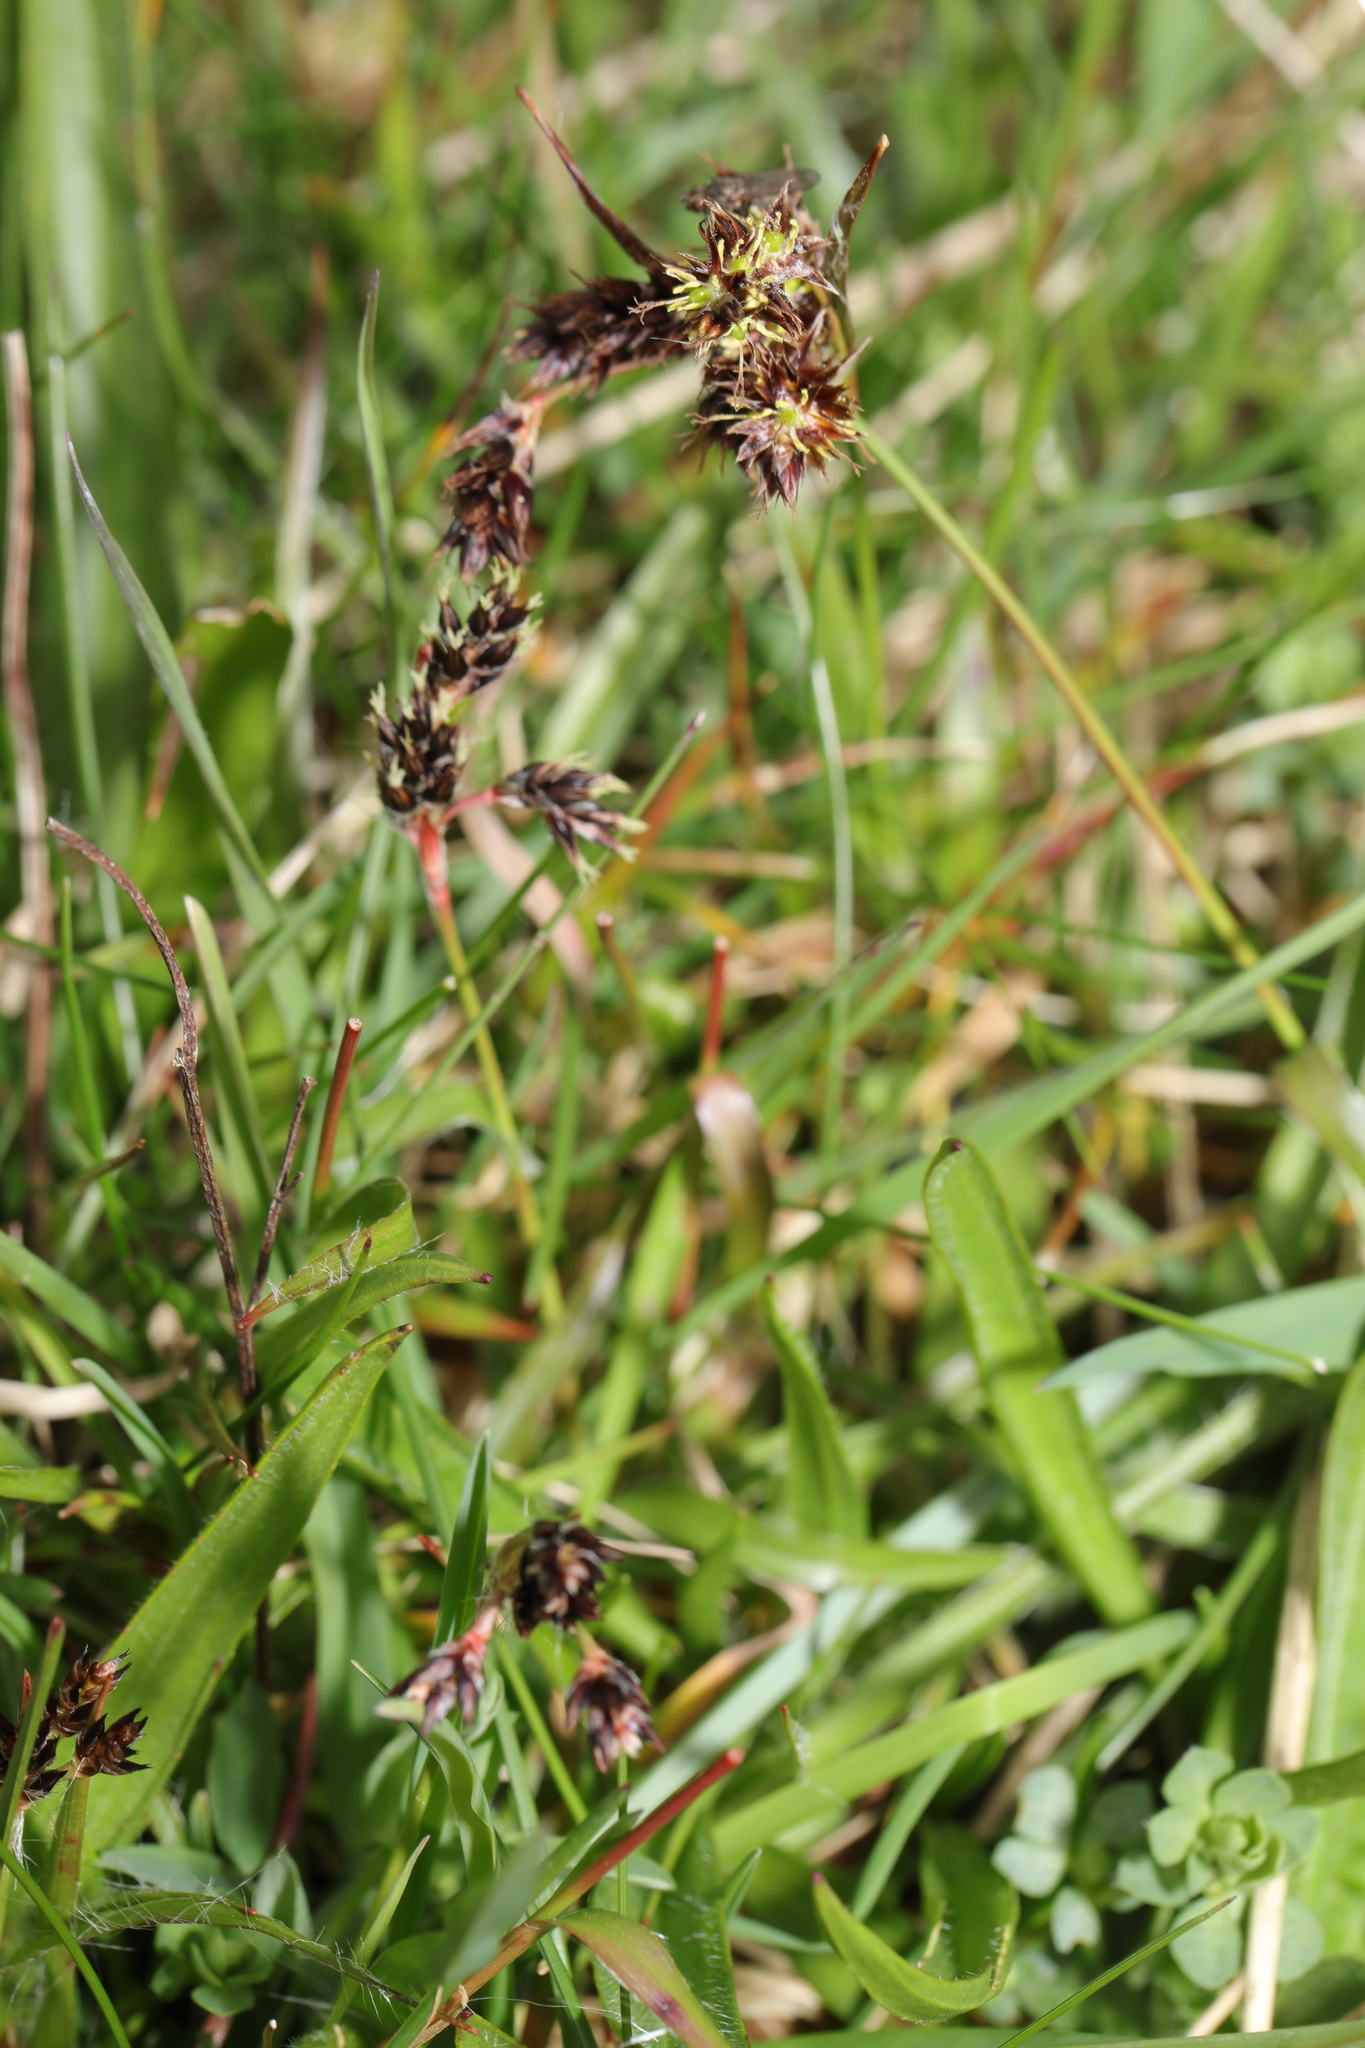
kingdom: Plantae
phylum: Tracheophyta
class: Liliopsida
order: Poales
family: Juncaceae
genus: Luzula
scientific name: Luzula campestris
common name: Field wood-rush
